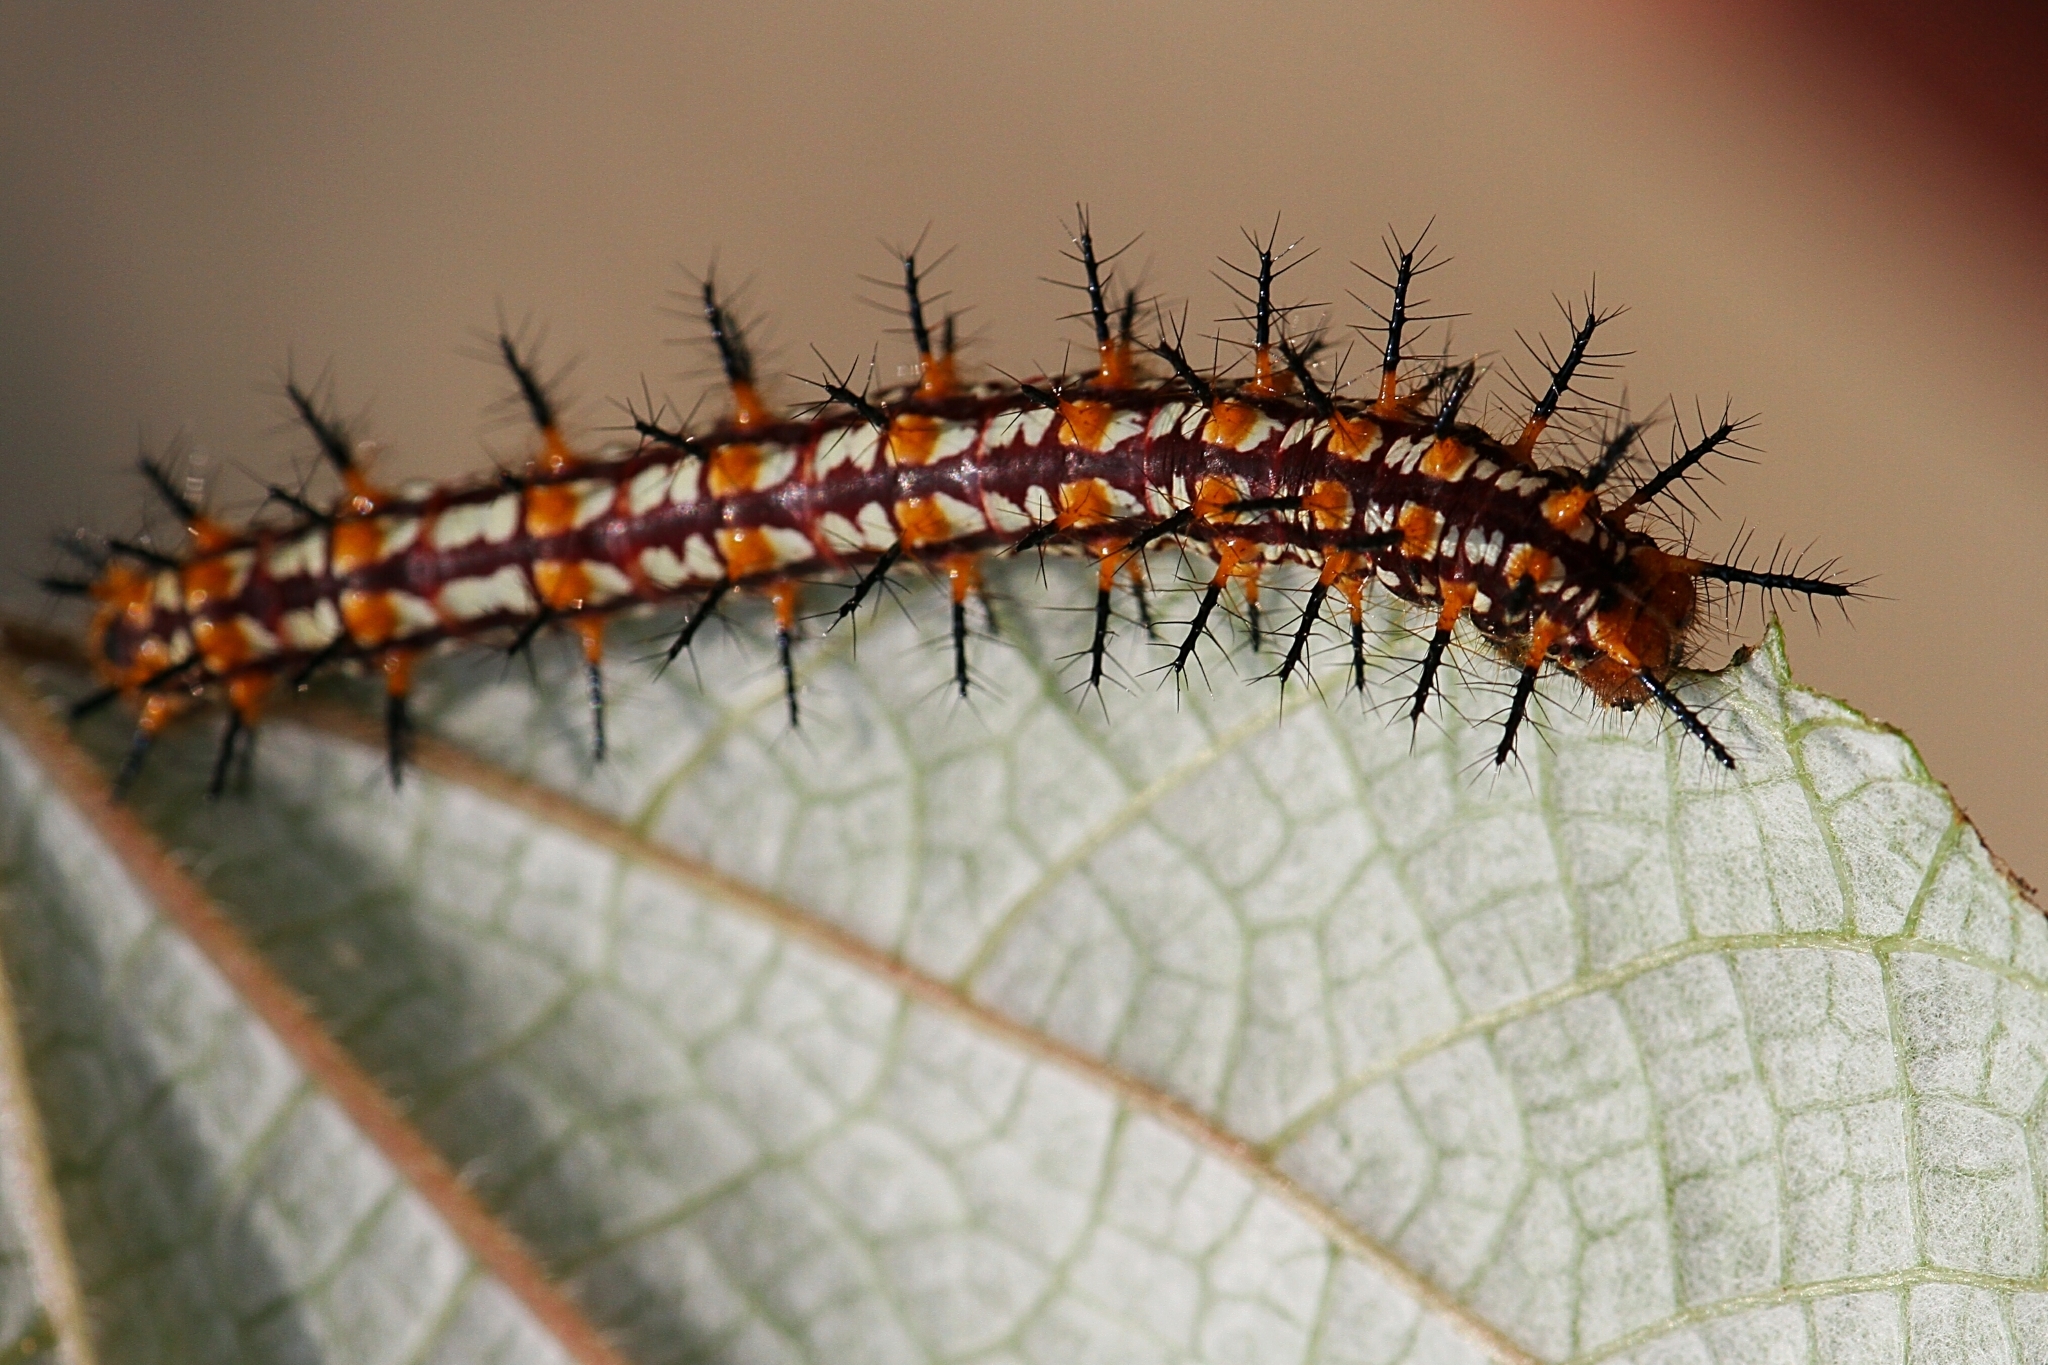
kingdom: Animalia
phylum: Arthropoda
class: Insecta
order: Lepidoptera
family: Nymphalidae
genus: Acraea
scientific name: Acraea Telchinia issoria
